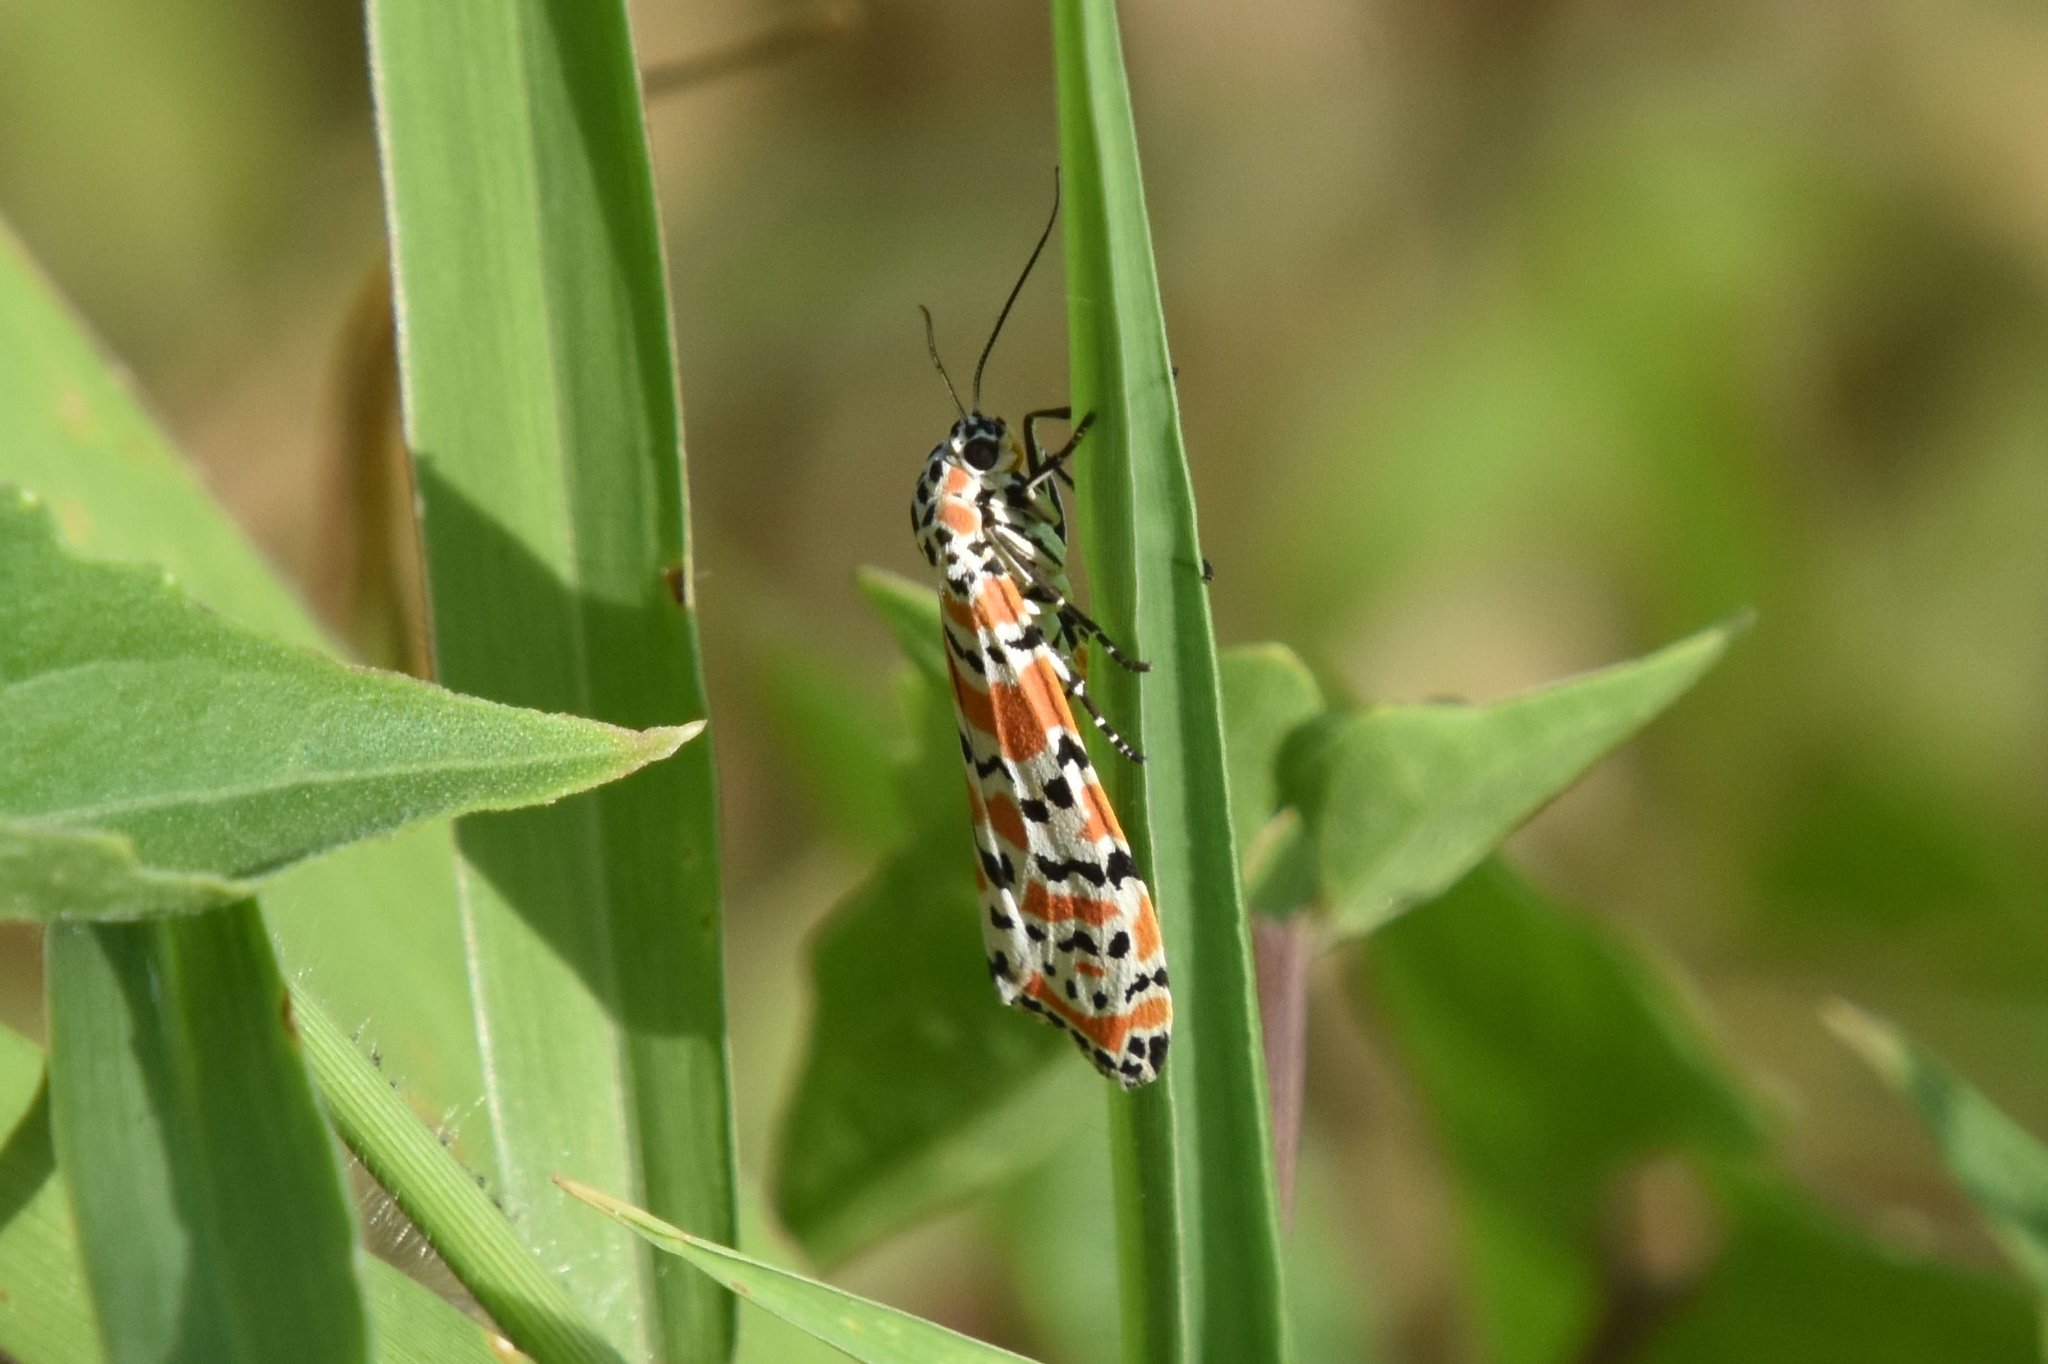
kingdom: Animalia
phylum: Arthropoda
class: Insecta
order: Lepidoptera
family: Erebidae
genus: Utetheisa
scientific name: Utetheisa ornatrix
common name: Beautiful utetheisa
